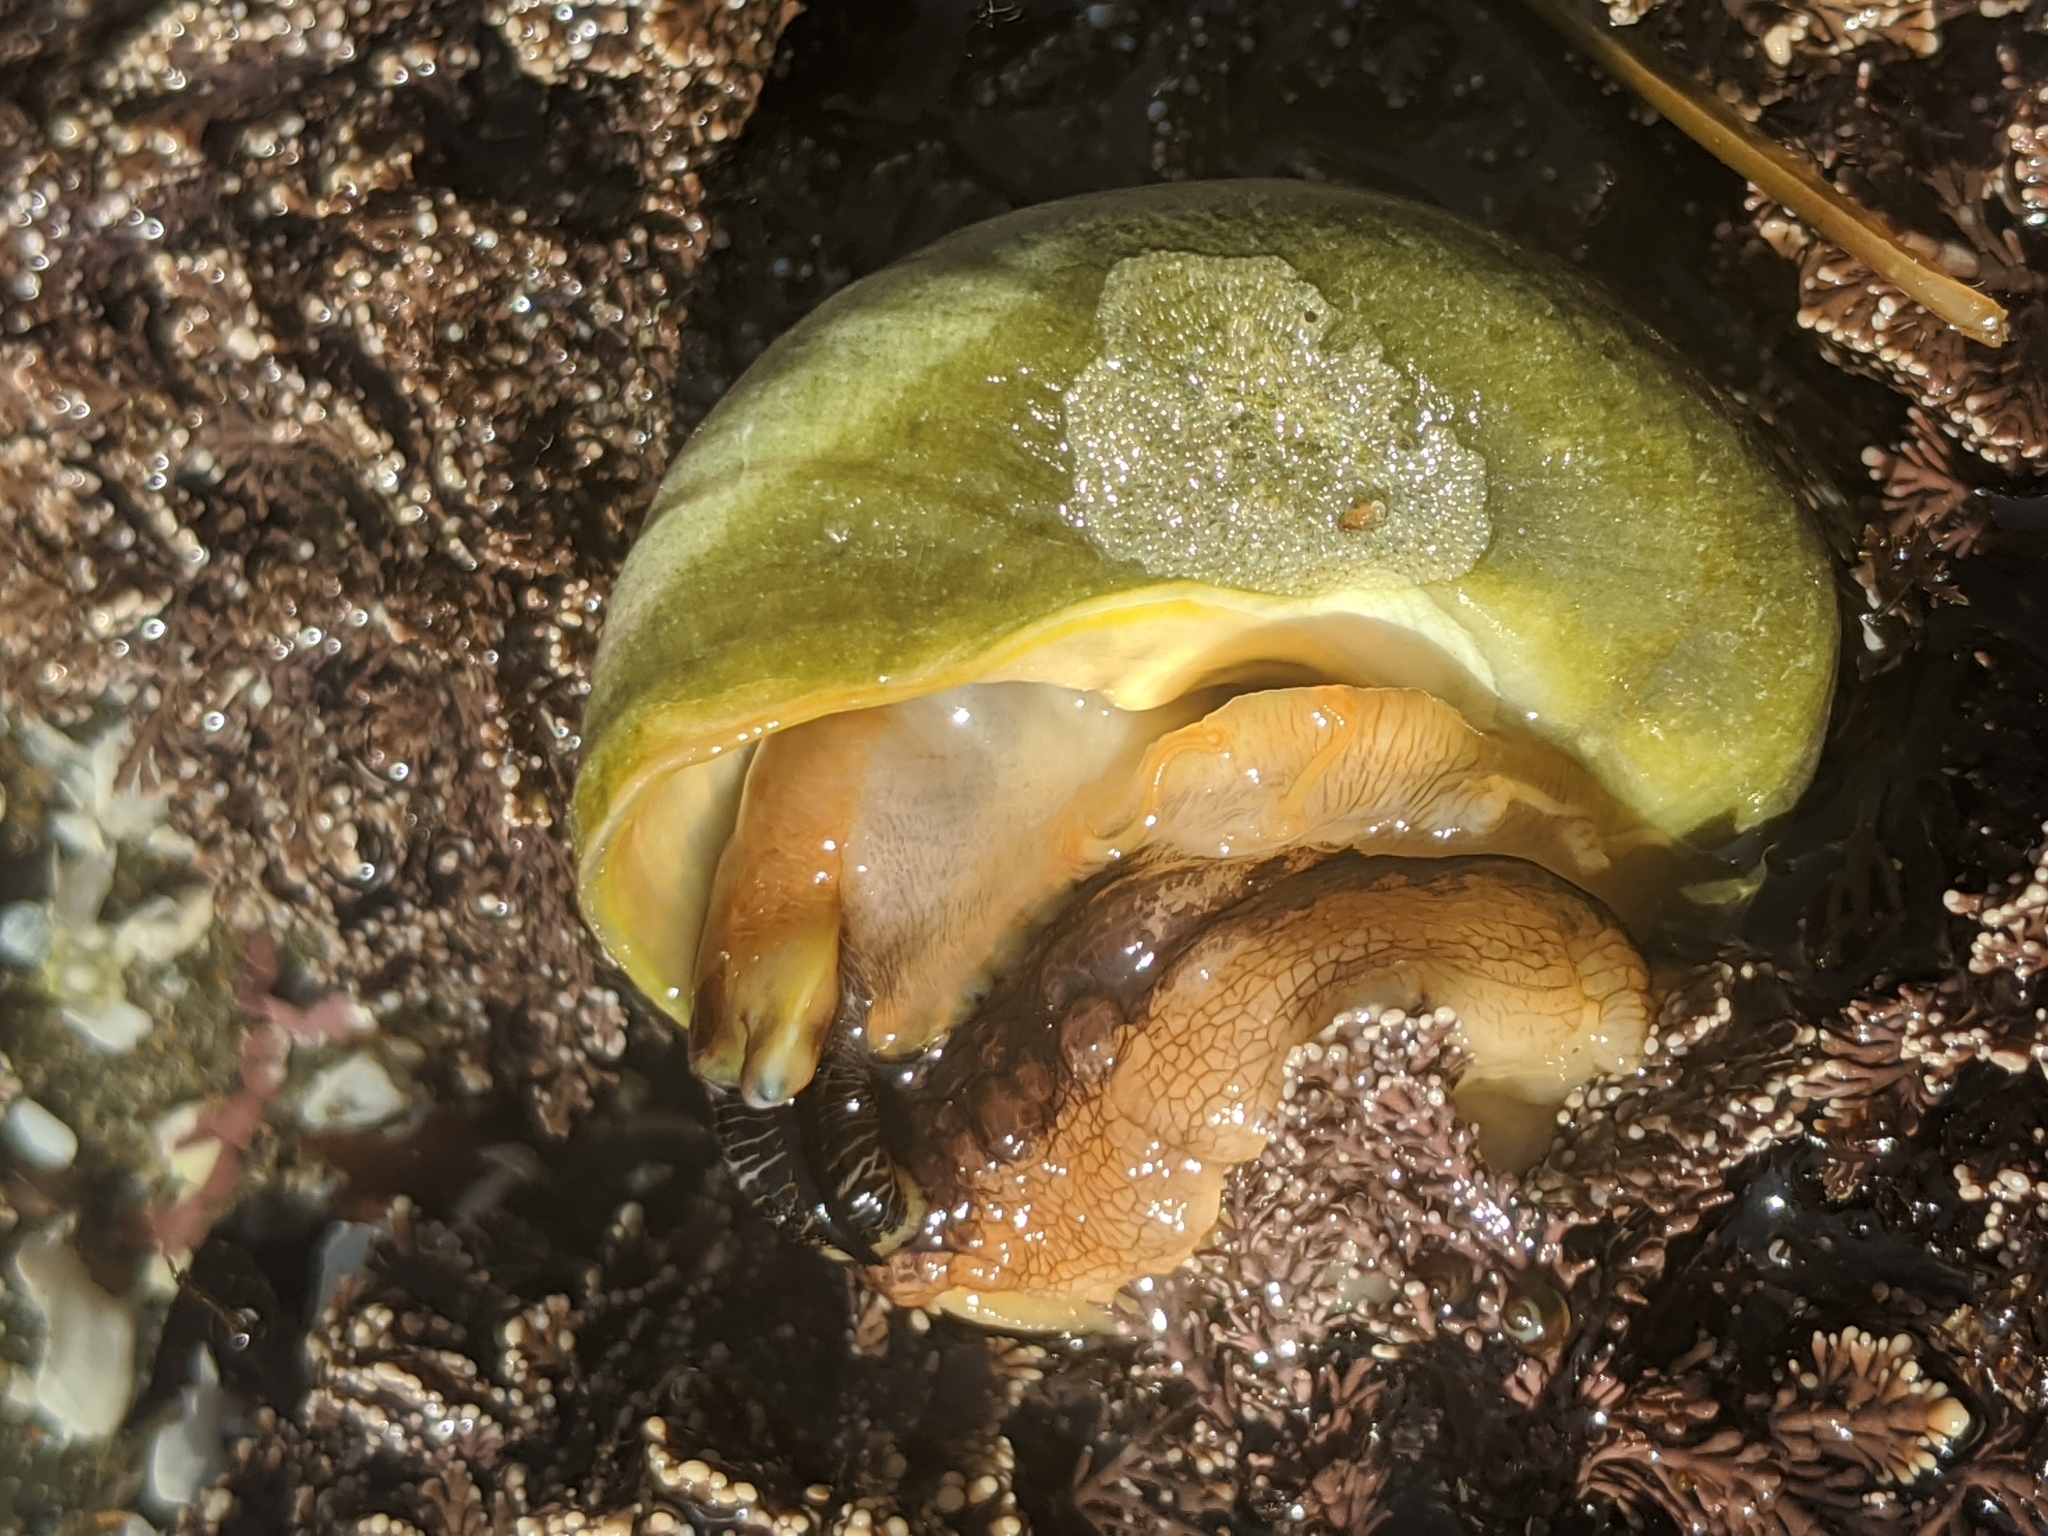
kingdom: Animalia
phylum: Mollusca
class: Gastropoda
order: Trochida
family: Tegulidae
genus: Tegula
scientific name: Tegula montereyi
